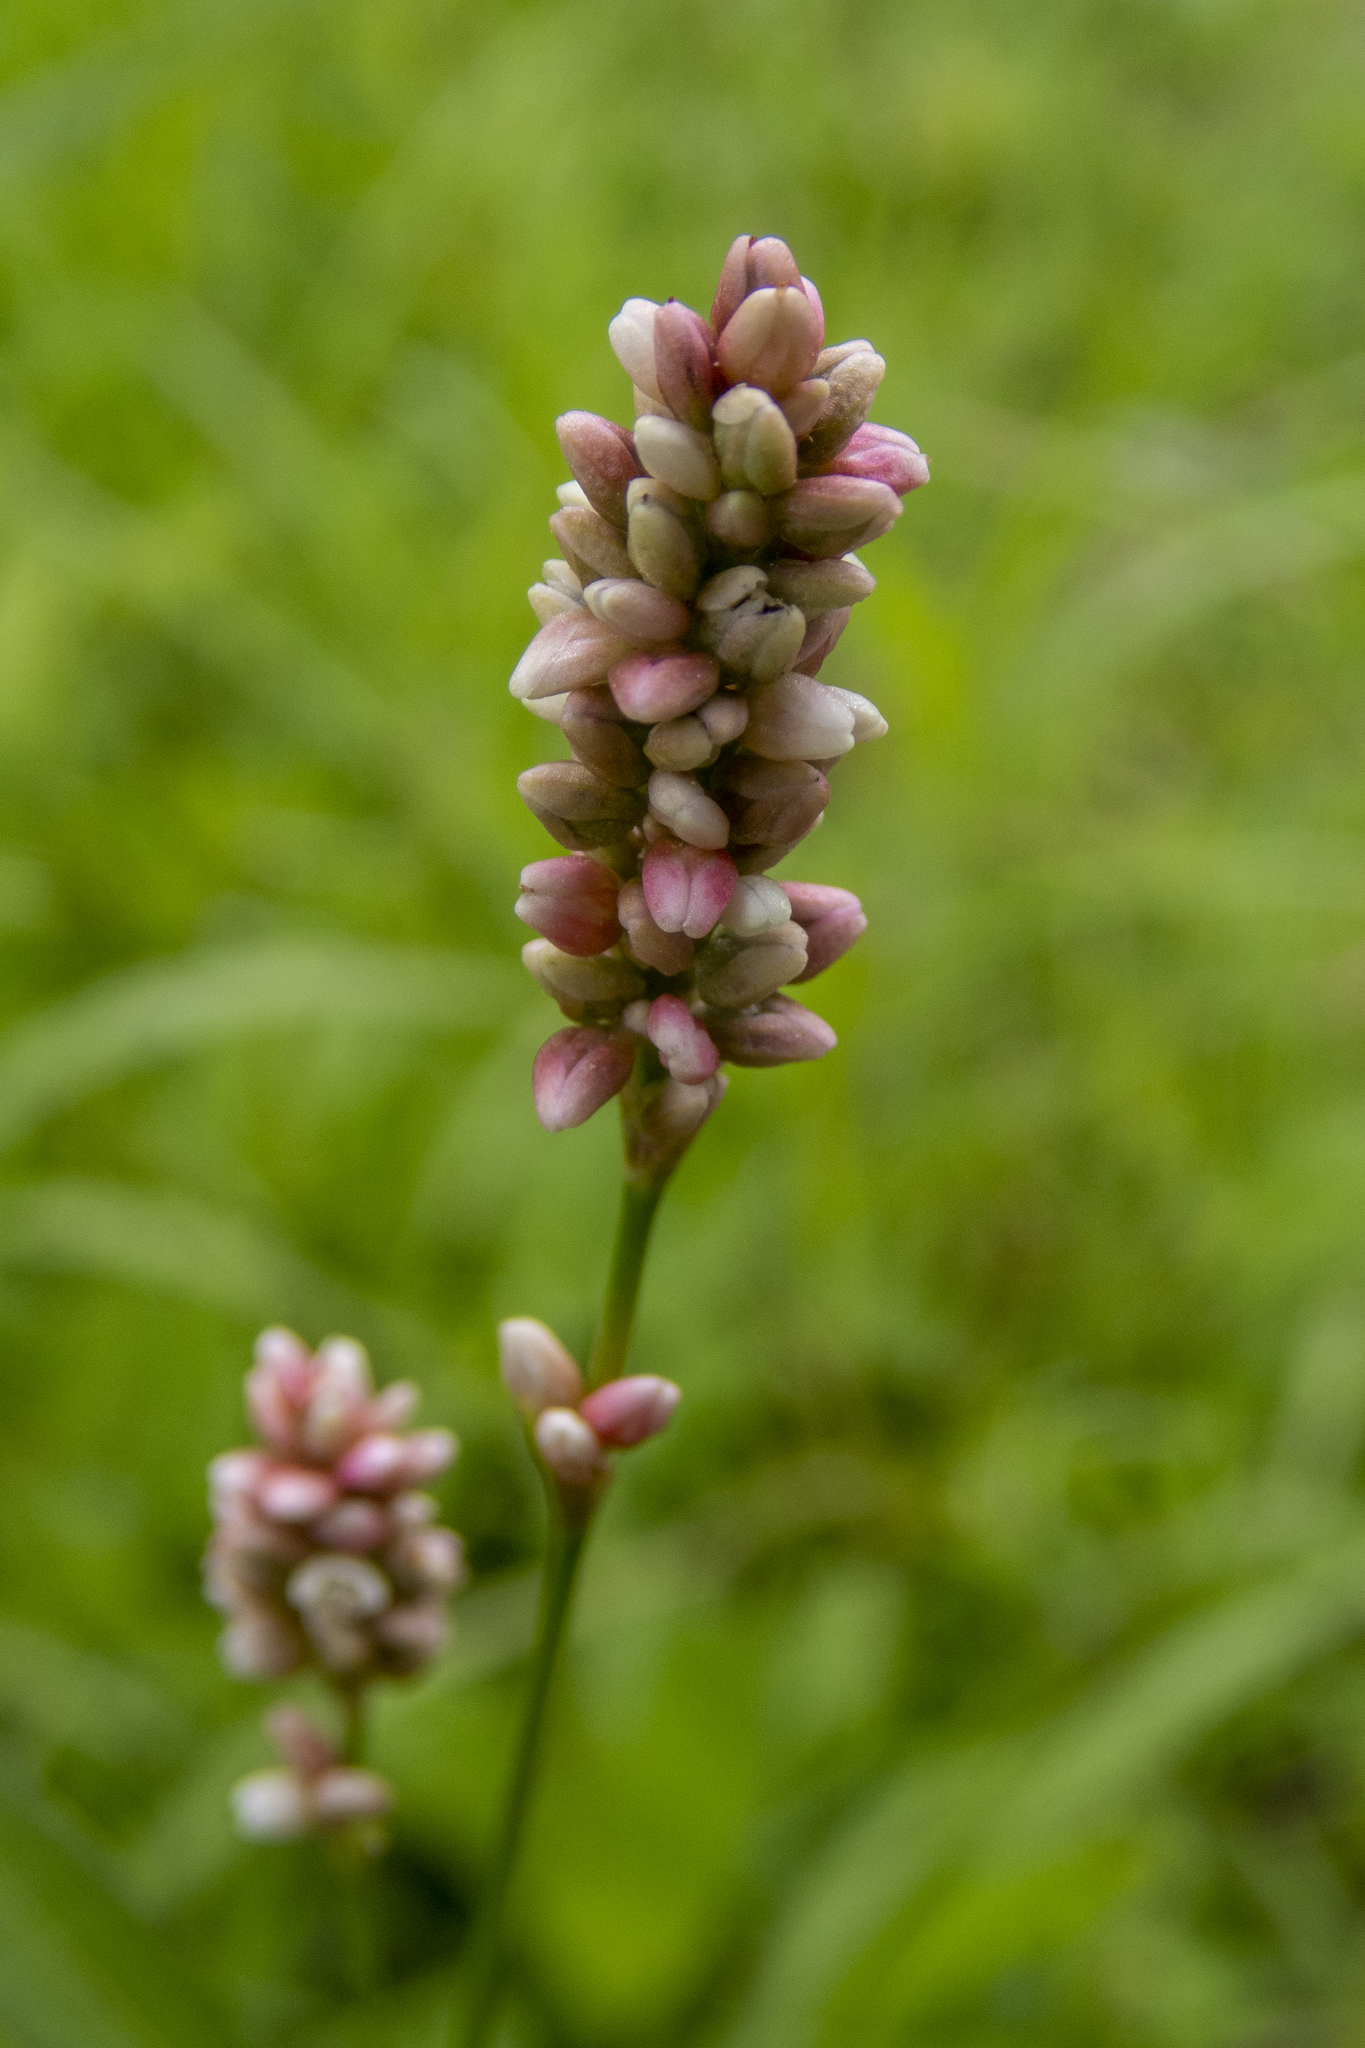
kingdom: Plantae
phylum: Tracheophyta
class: Magnoliopsida
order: Caryophyllales
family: Polygonaceae
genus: Persicaria
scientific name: Persicaria maculosa
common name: Redshank
